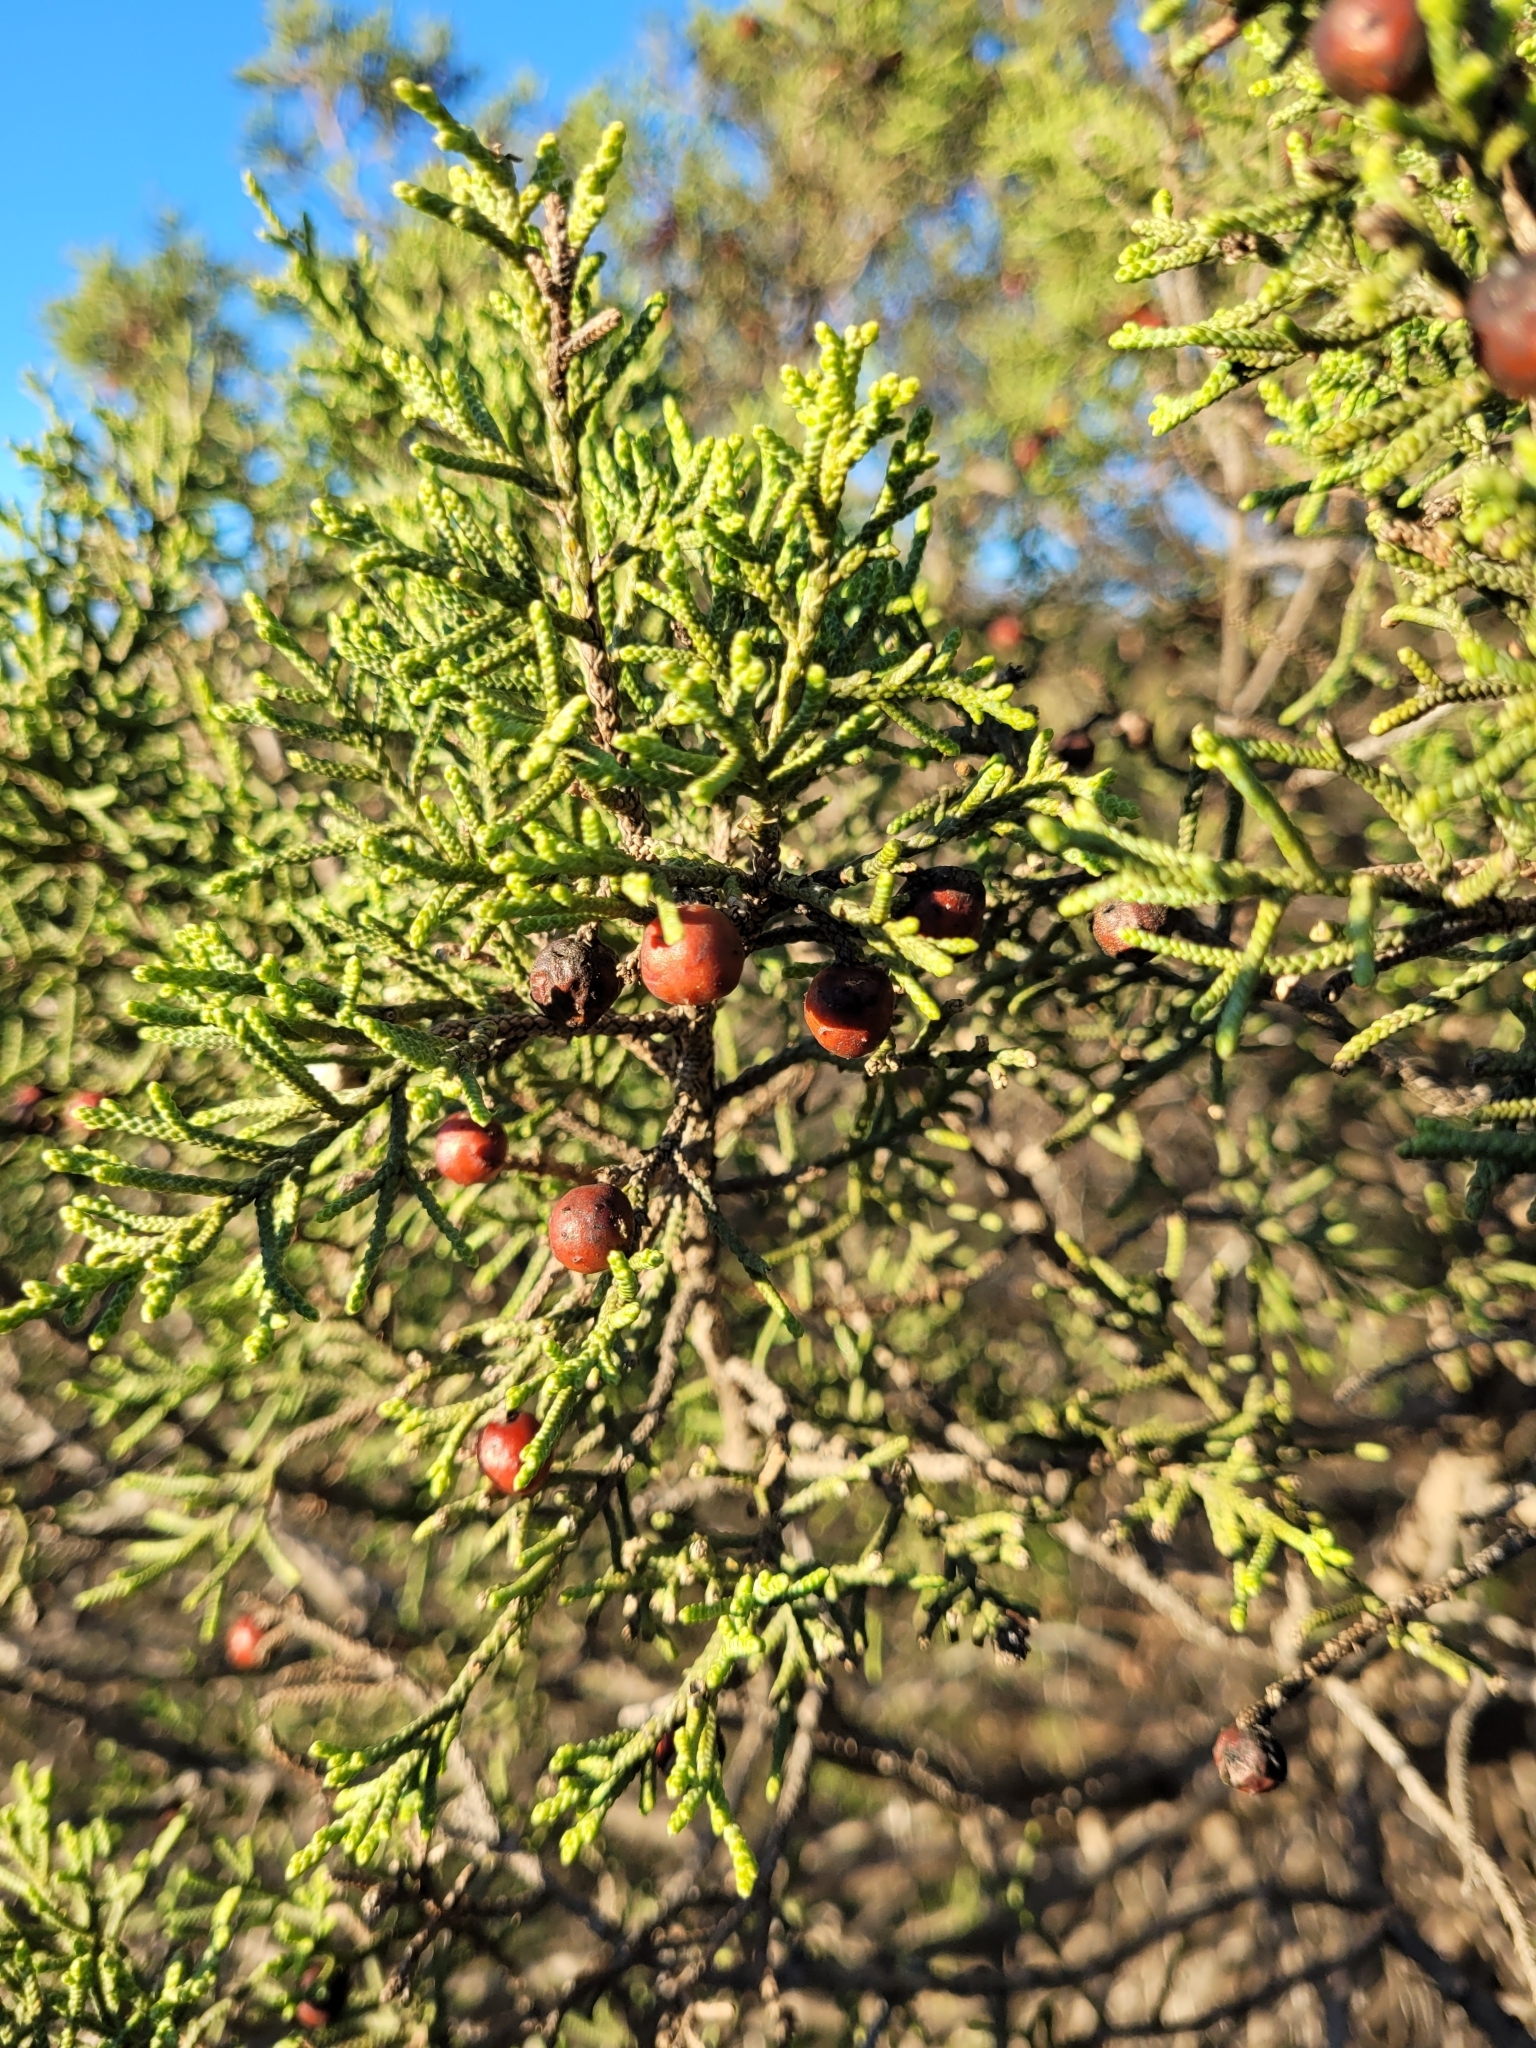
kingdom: Plantae
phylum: Tracheophyta
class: Pinopsida
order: Pinales
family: Cupressaceae
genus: Juniperus
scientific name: Juniperus phoenicea
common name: Phoenician juniper
